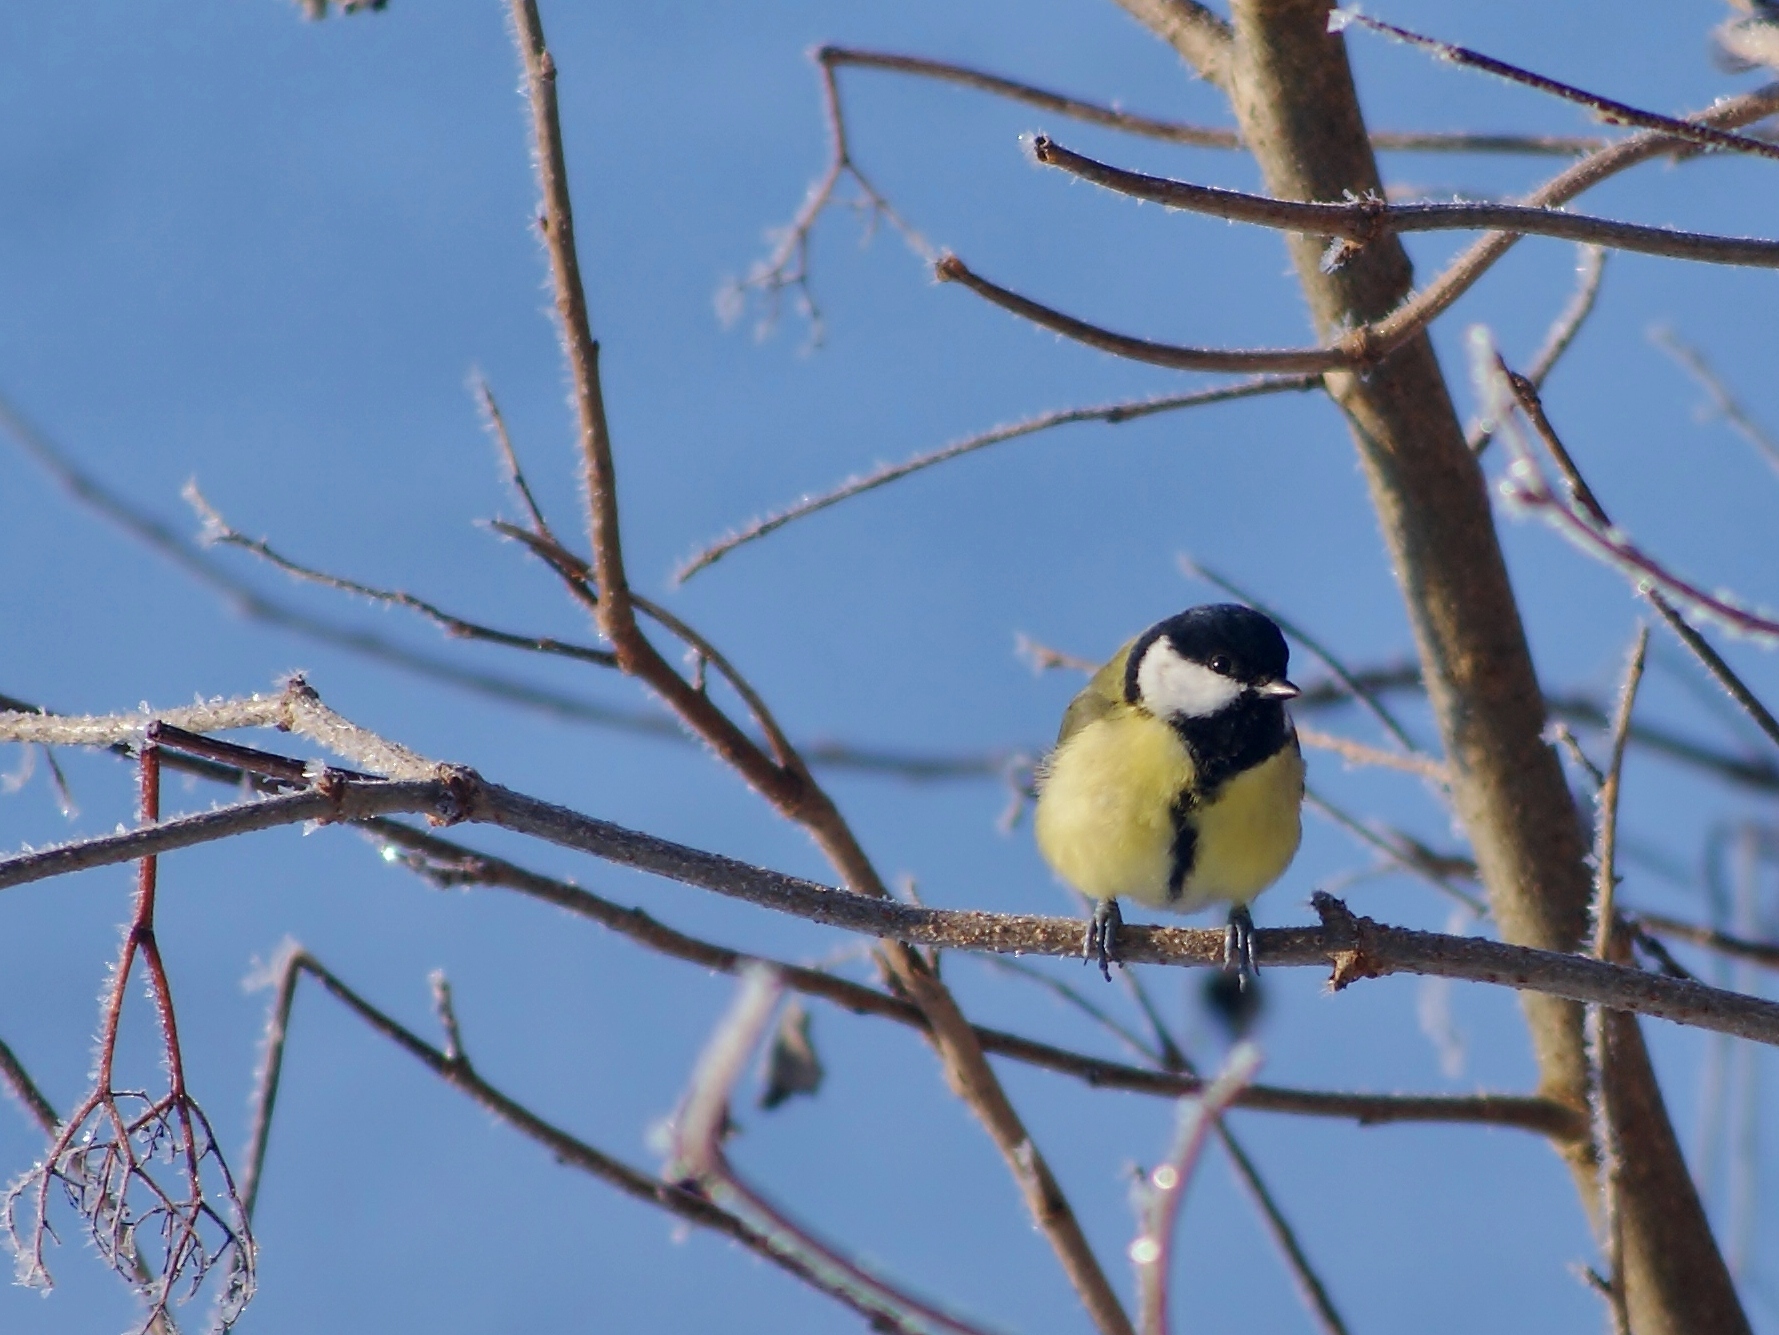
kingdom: Animalia
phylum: Chordata
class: Aves
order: Passeriformes
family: Paridae
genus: Parus
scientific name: Parus major
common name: Great tit
